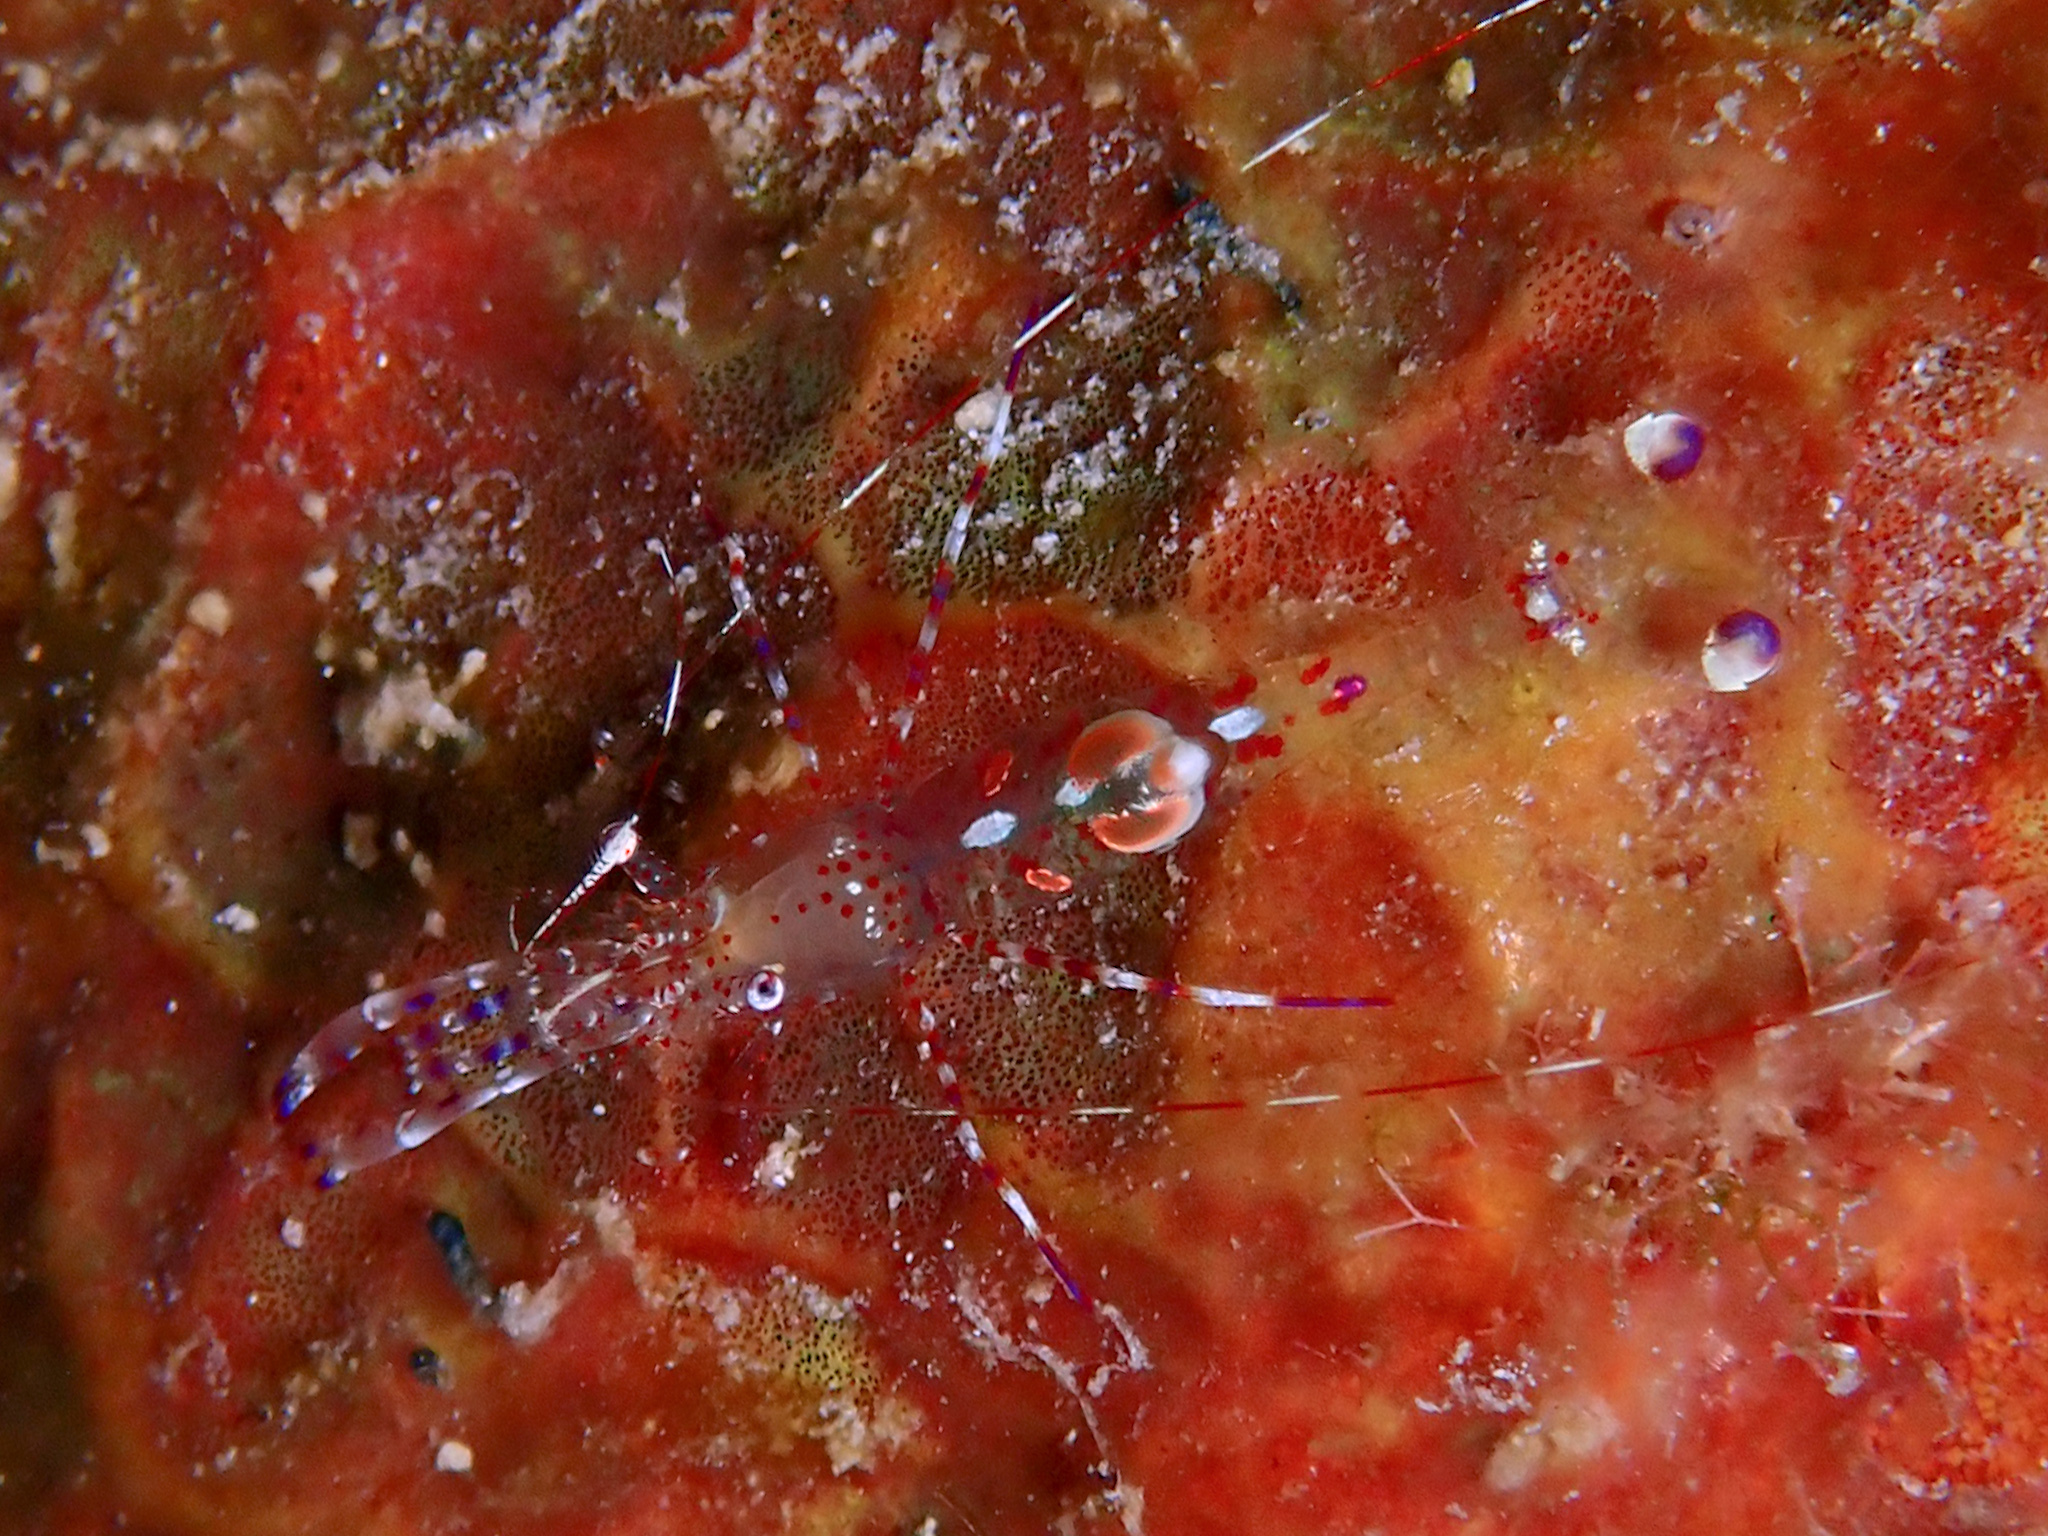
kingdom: Animalia
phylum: Arthropoda
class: Malacostraca
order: Decapoda
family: Palaemonidae
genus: Periclimenes
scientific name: Periclimenes yucatanicus
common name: Spotted cleaning shrimp
